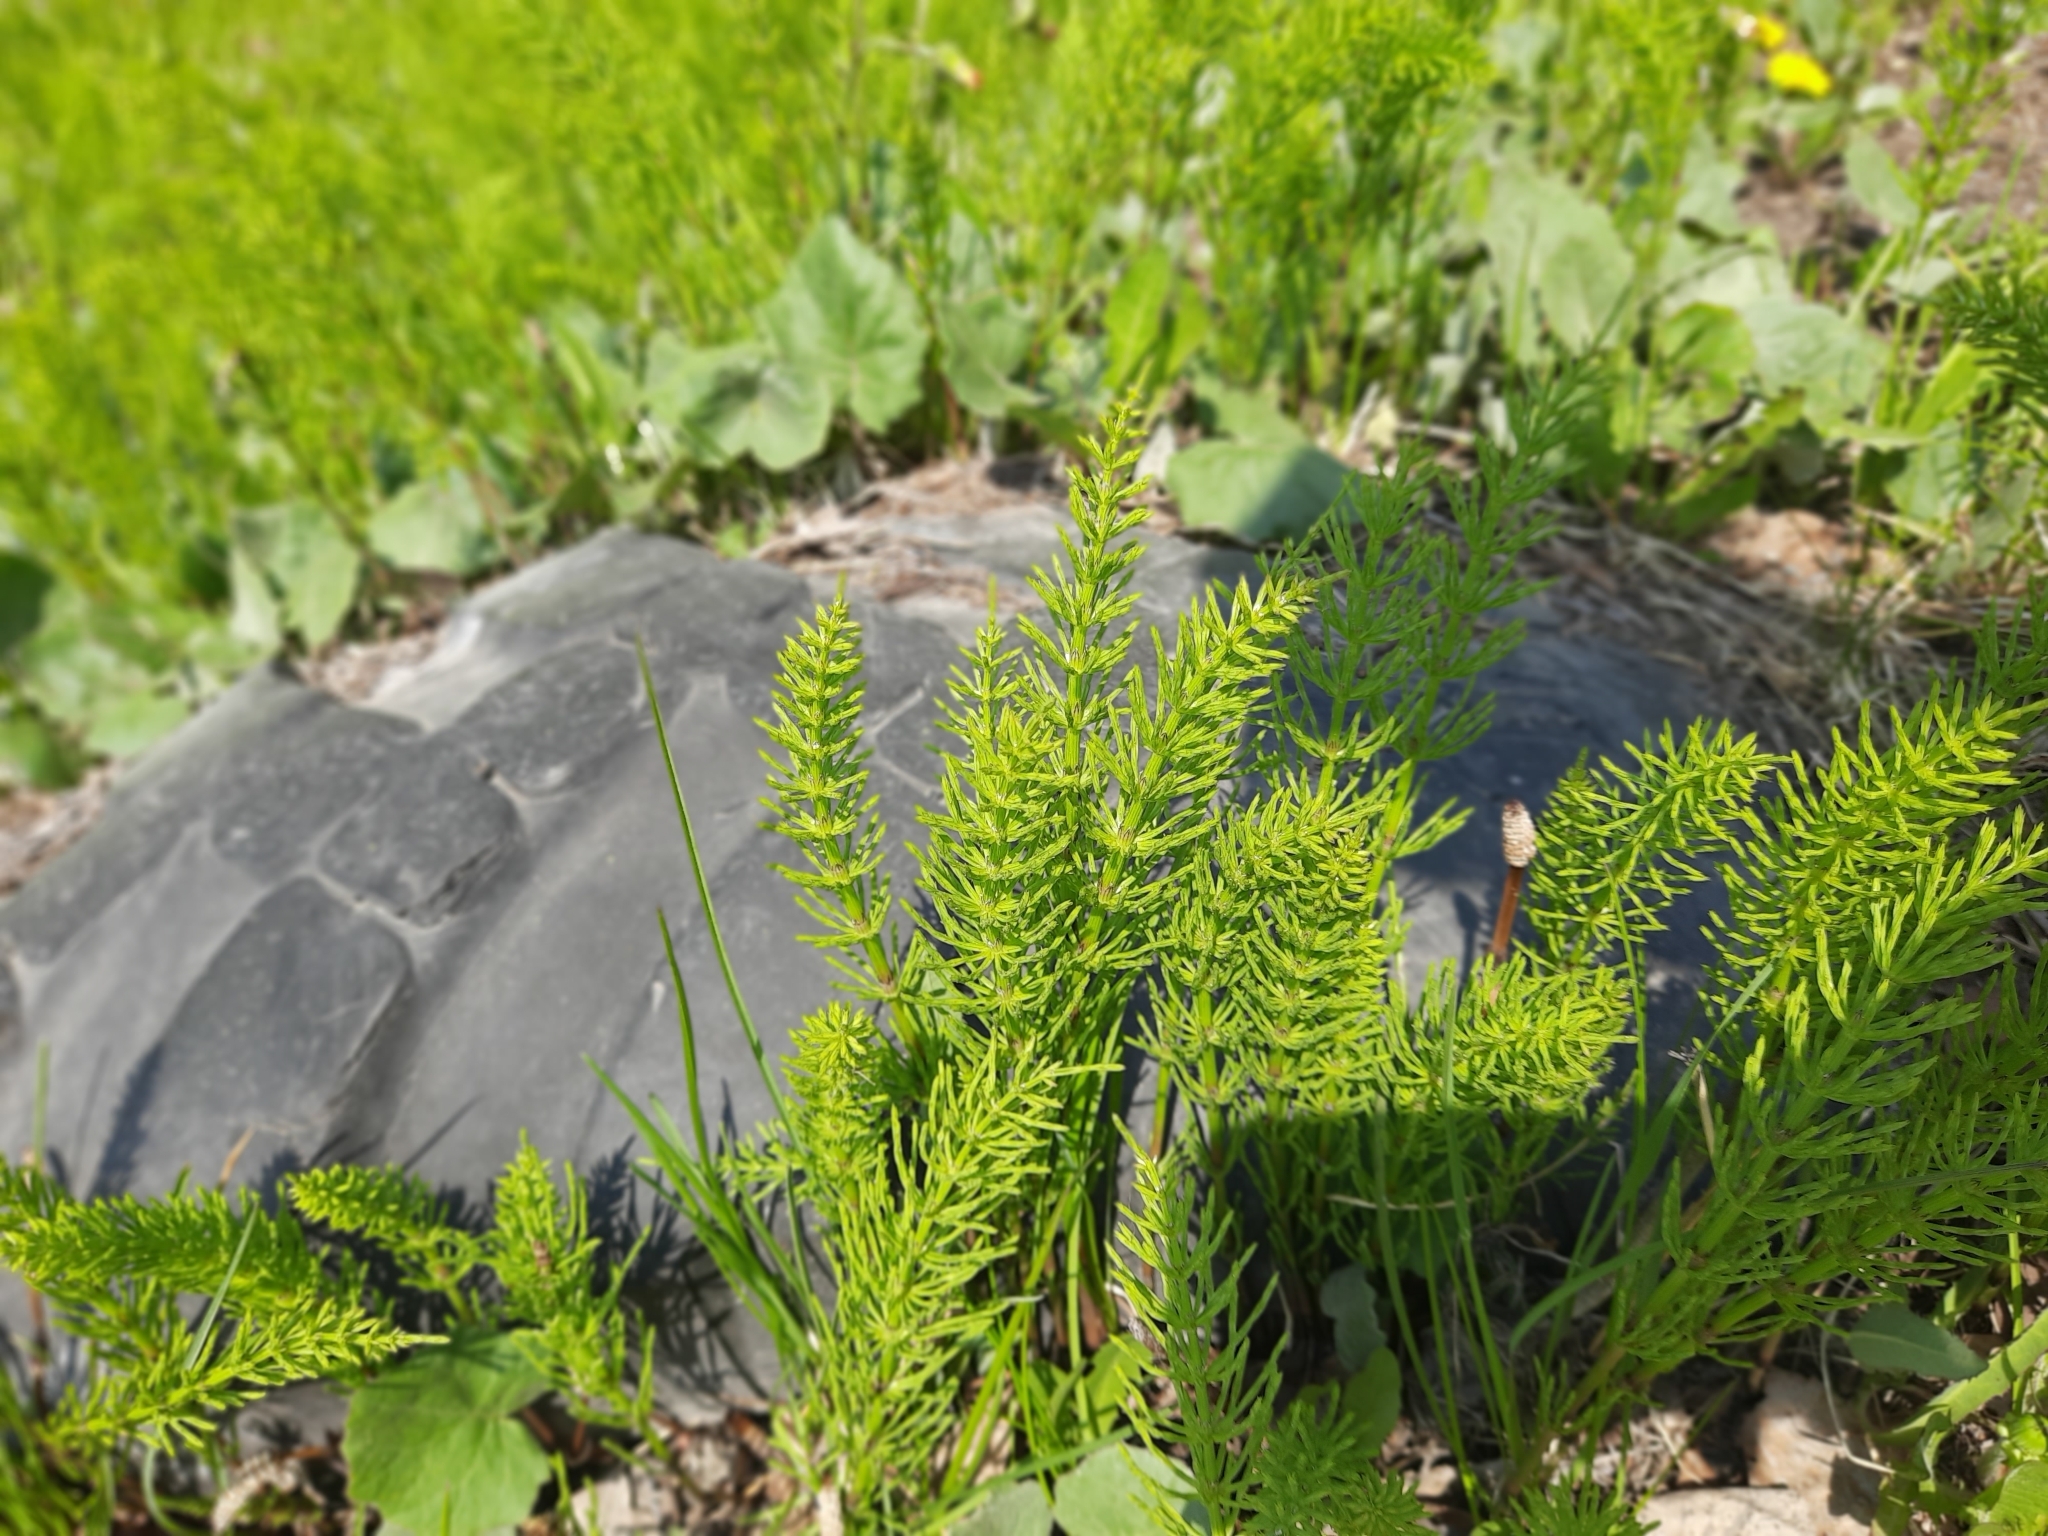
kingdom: Plantae
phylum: Tracheophyta
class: Polypodiopsida
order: Equisetales
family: Equisetaceae
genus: Equisetum
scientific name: Equisetum arvense
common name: Field horsetail
